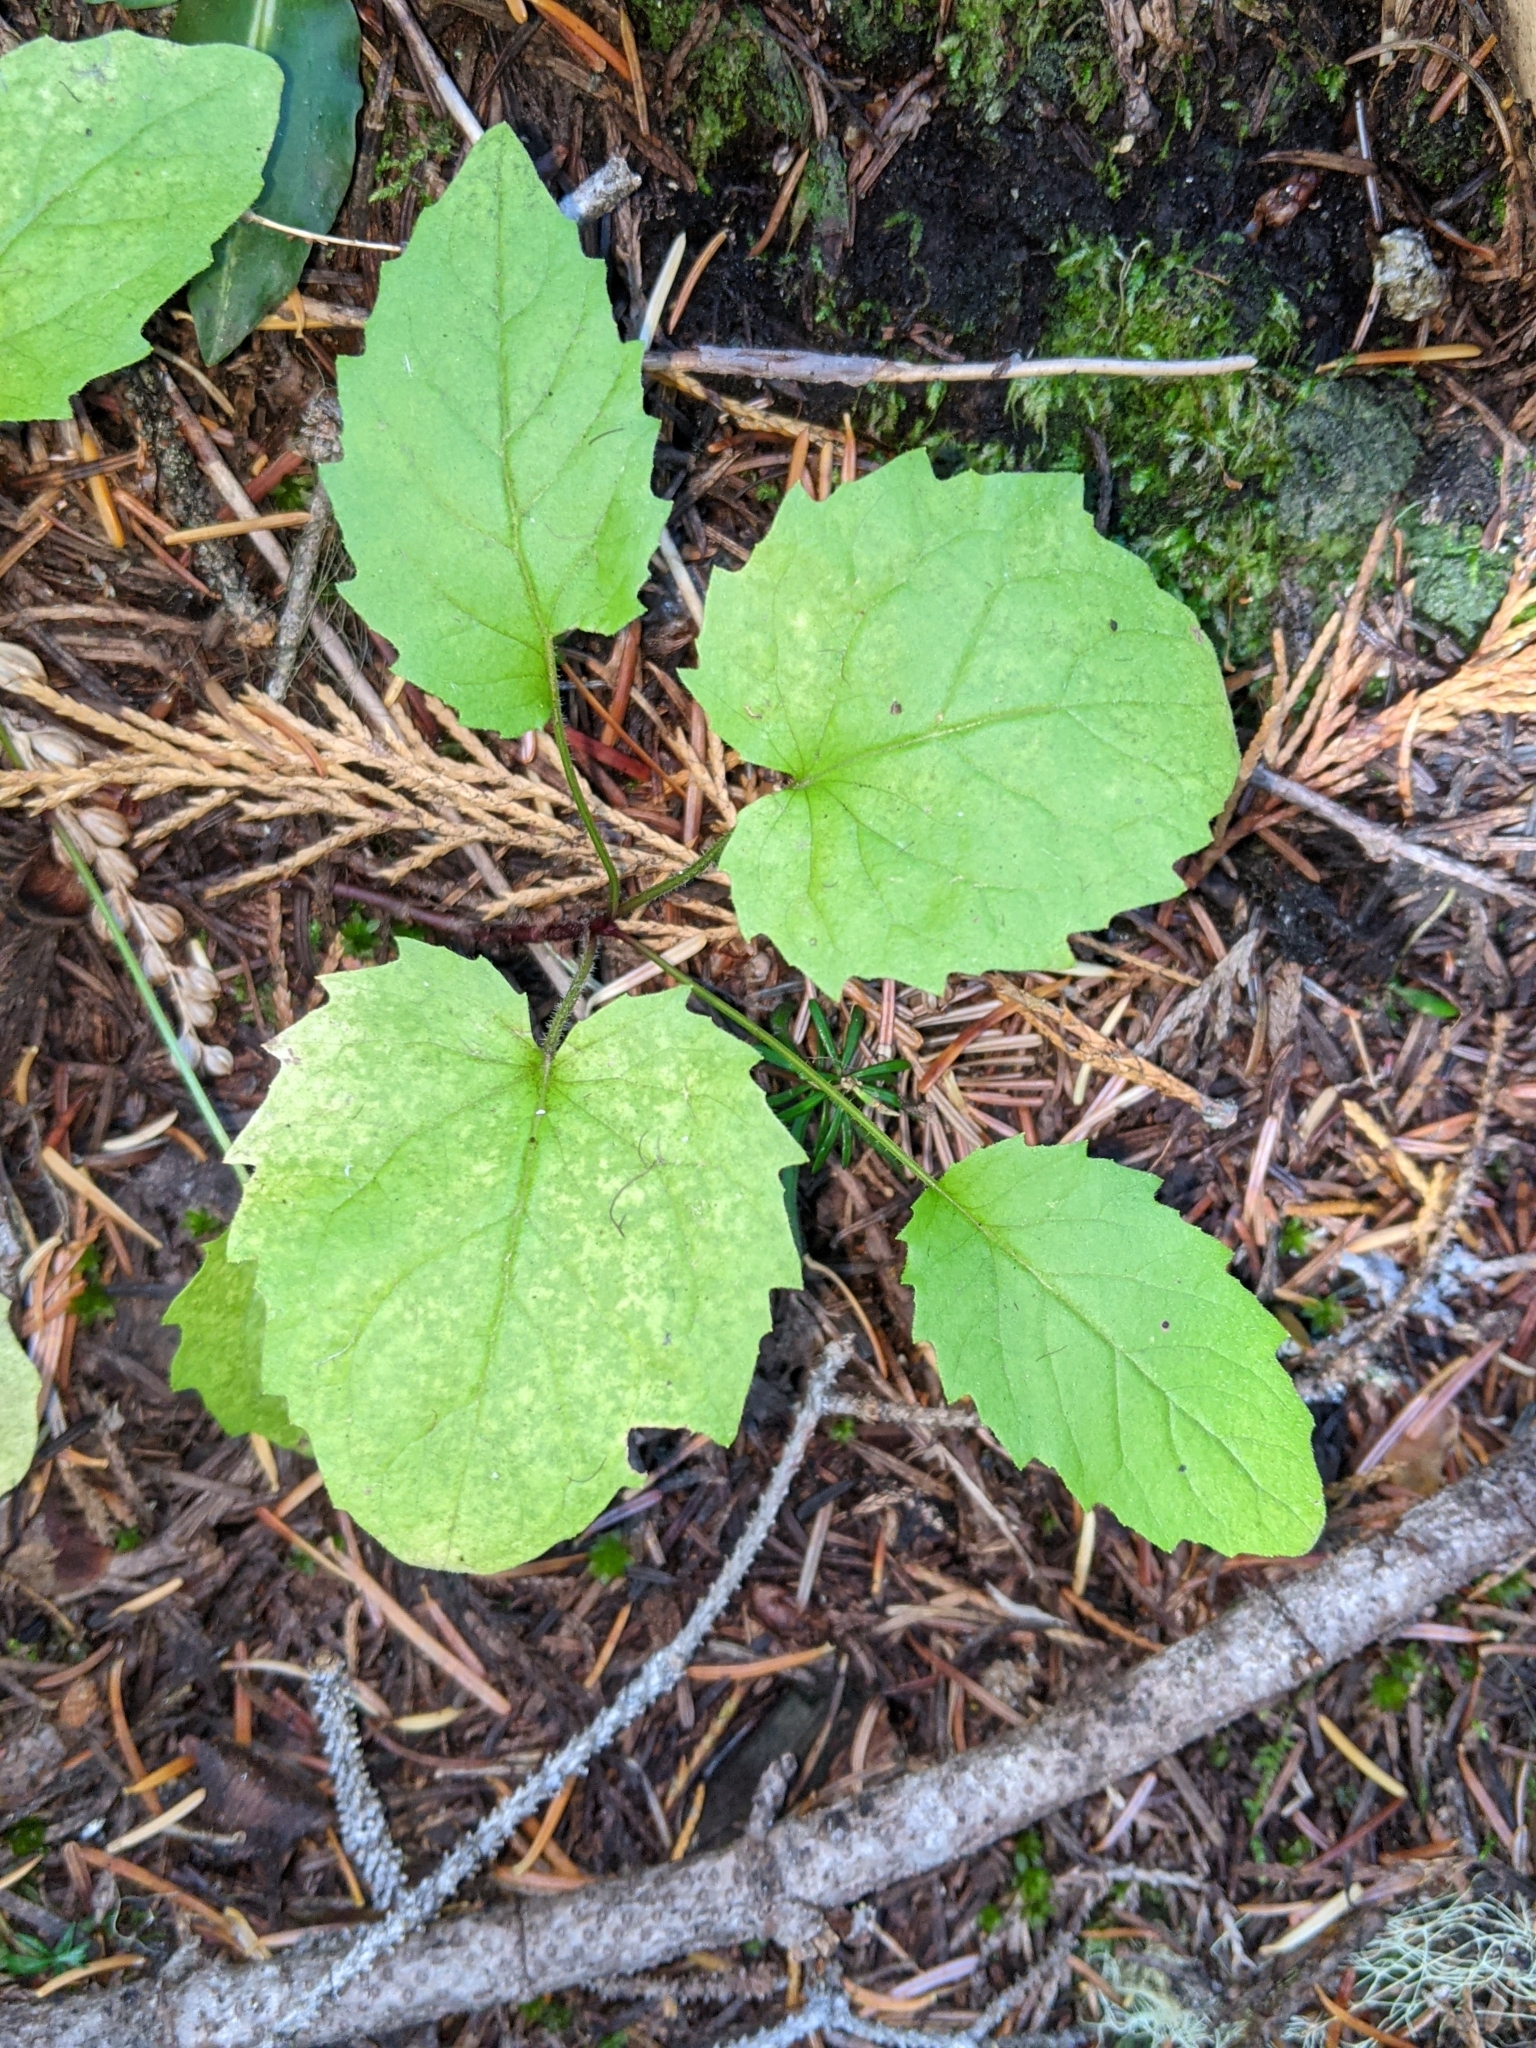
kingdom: Plantae
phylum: Tracheophyta
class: Magnoliopsida
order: Asterales
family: Asteraceae
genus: Arnica
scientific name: Arnica cordifolia
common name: Heart-leaf arnica
